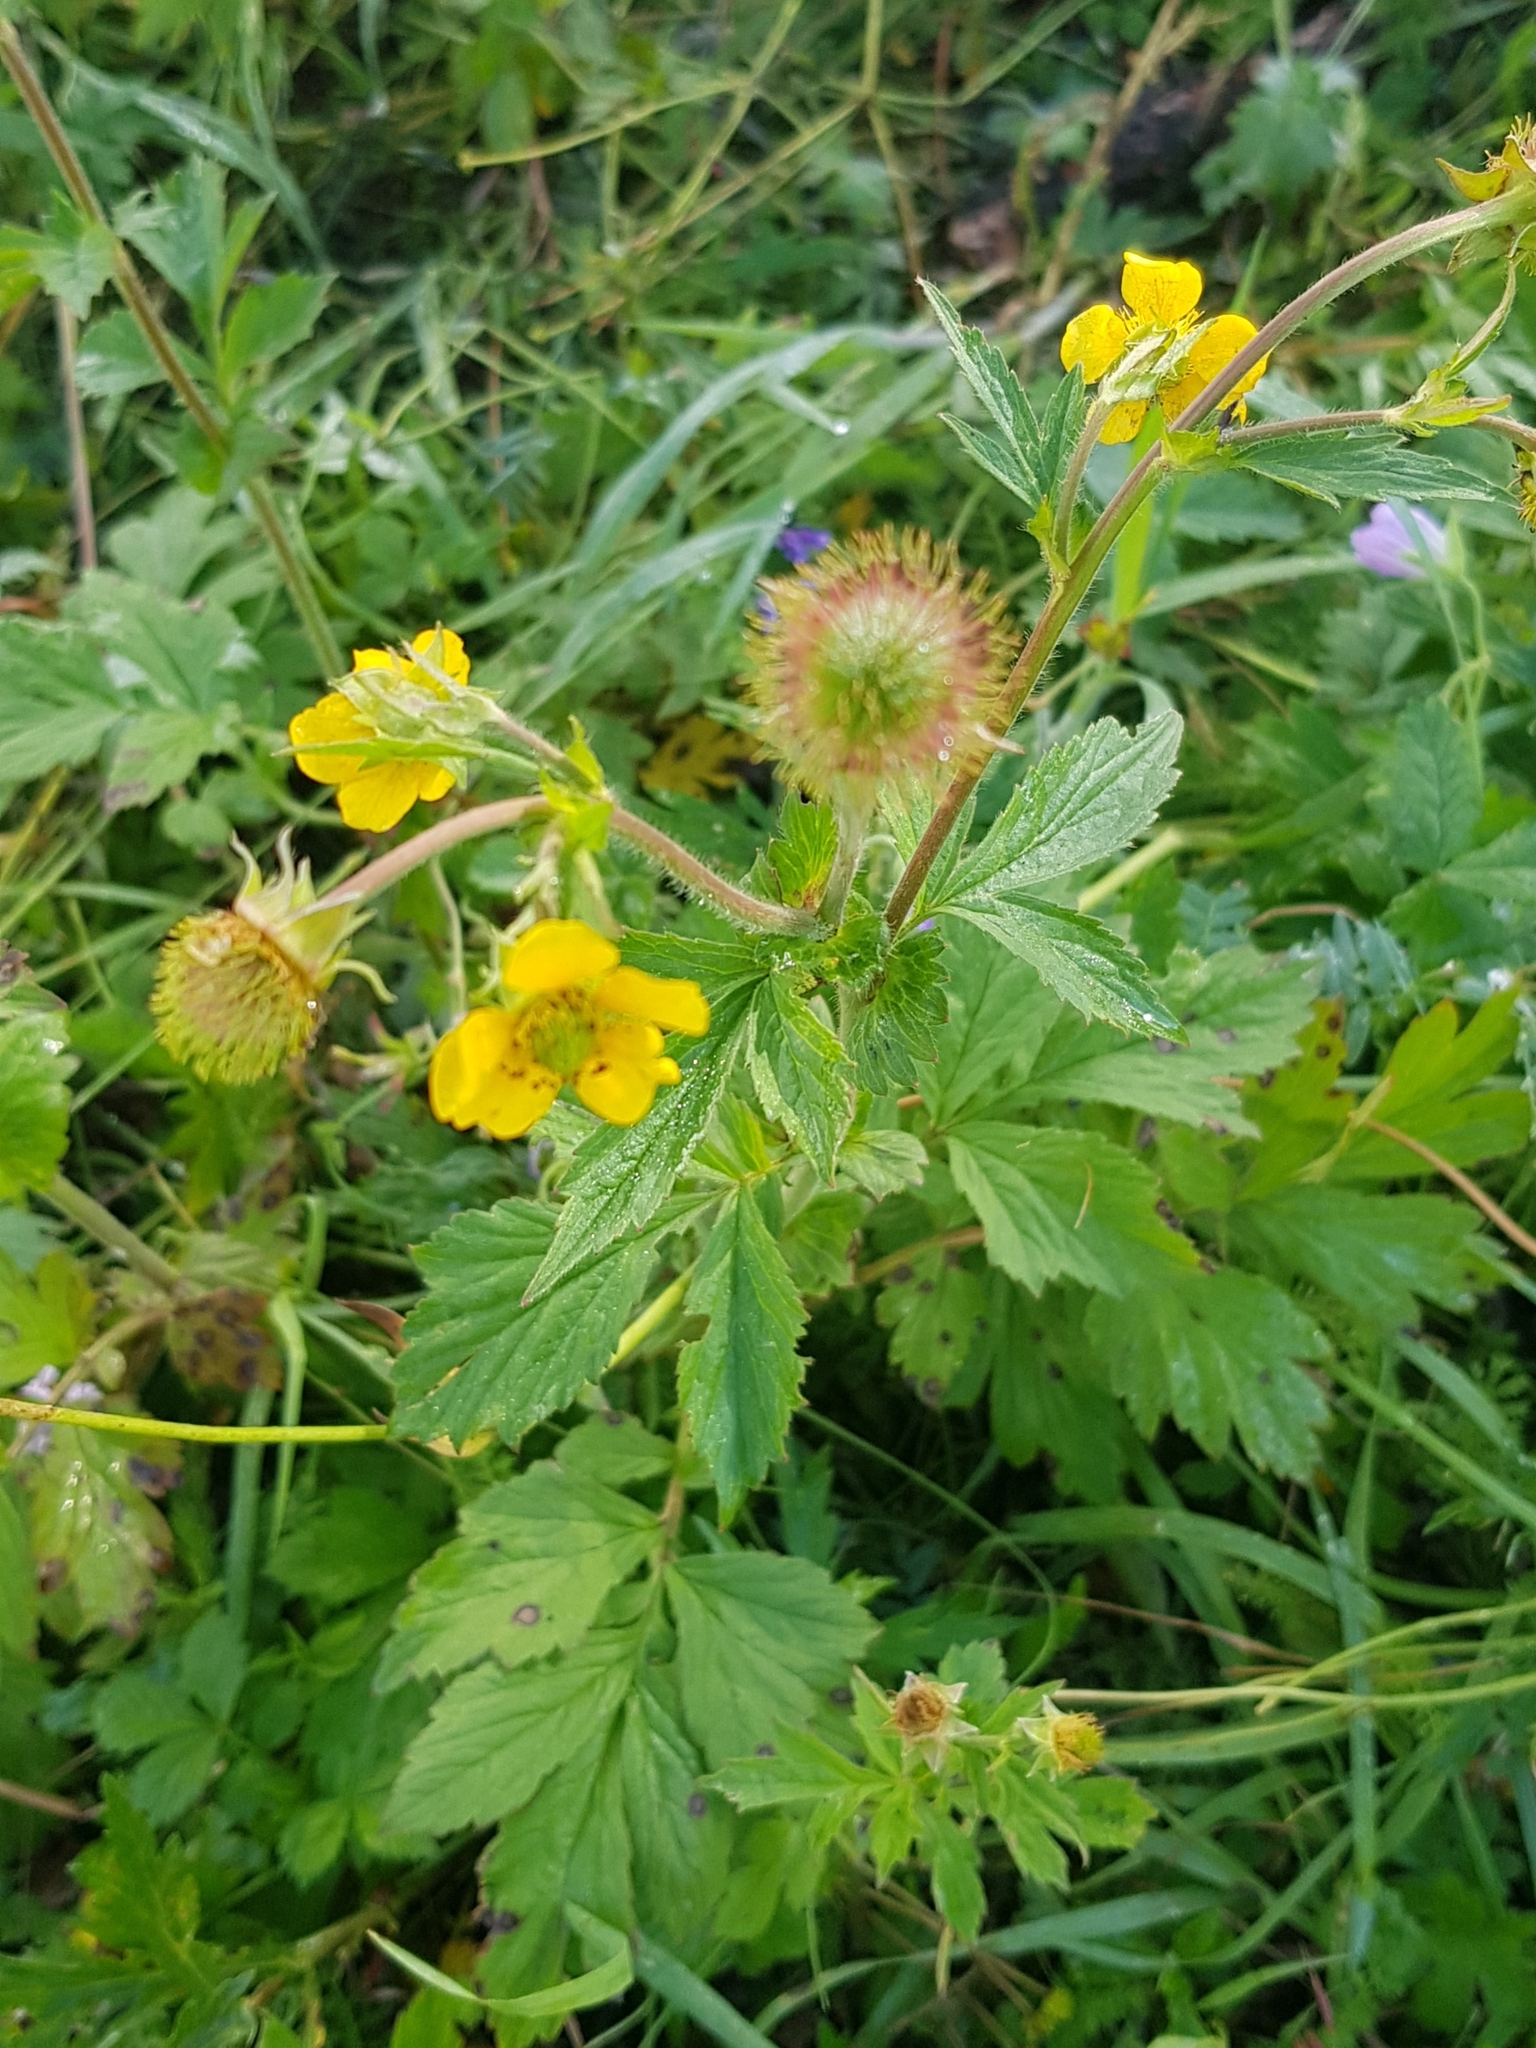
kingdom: Plantae
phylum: Tracheophyta
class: Magnoliopsida
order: Rosales
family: Rosaceae
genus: Geum
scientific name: Geum aleppicum
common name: Yellow avens
